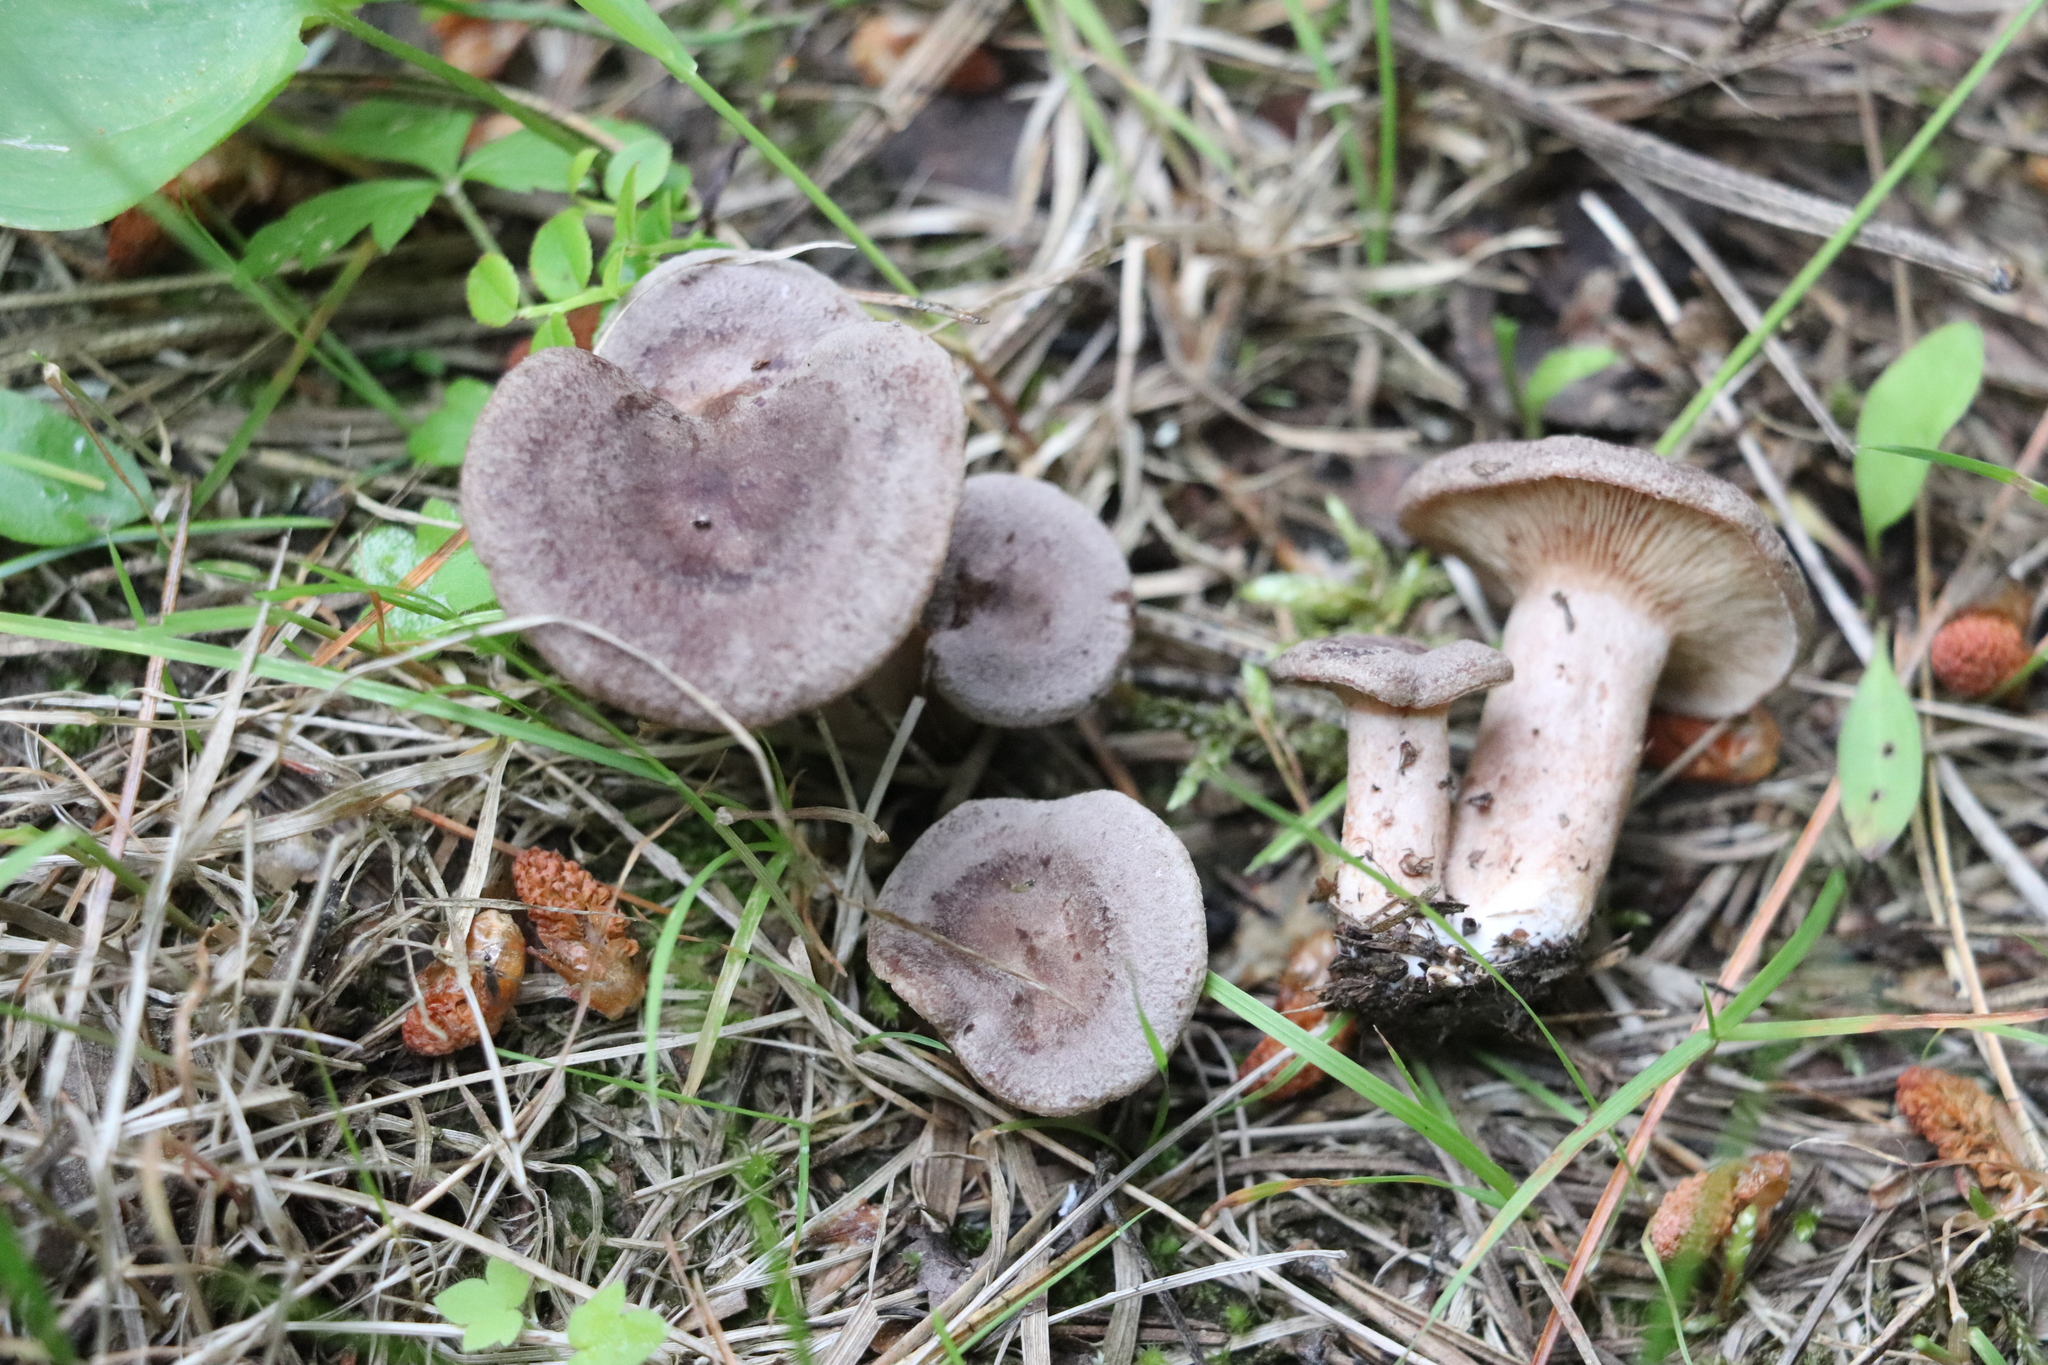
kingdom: Fungi
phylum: Basidiomycota
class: Agaricomycetes
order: Russulales
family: Russulaceae
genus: Lactarius
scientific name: Lactarius mammosus
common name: Pap milkcap
